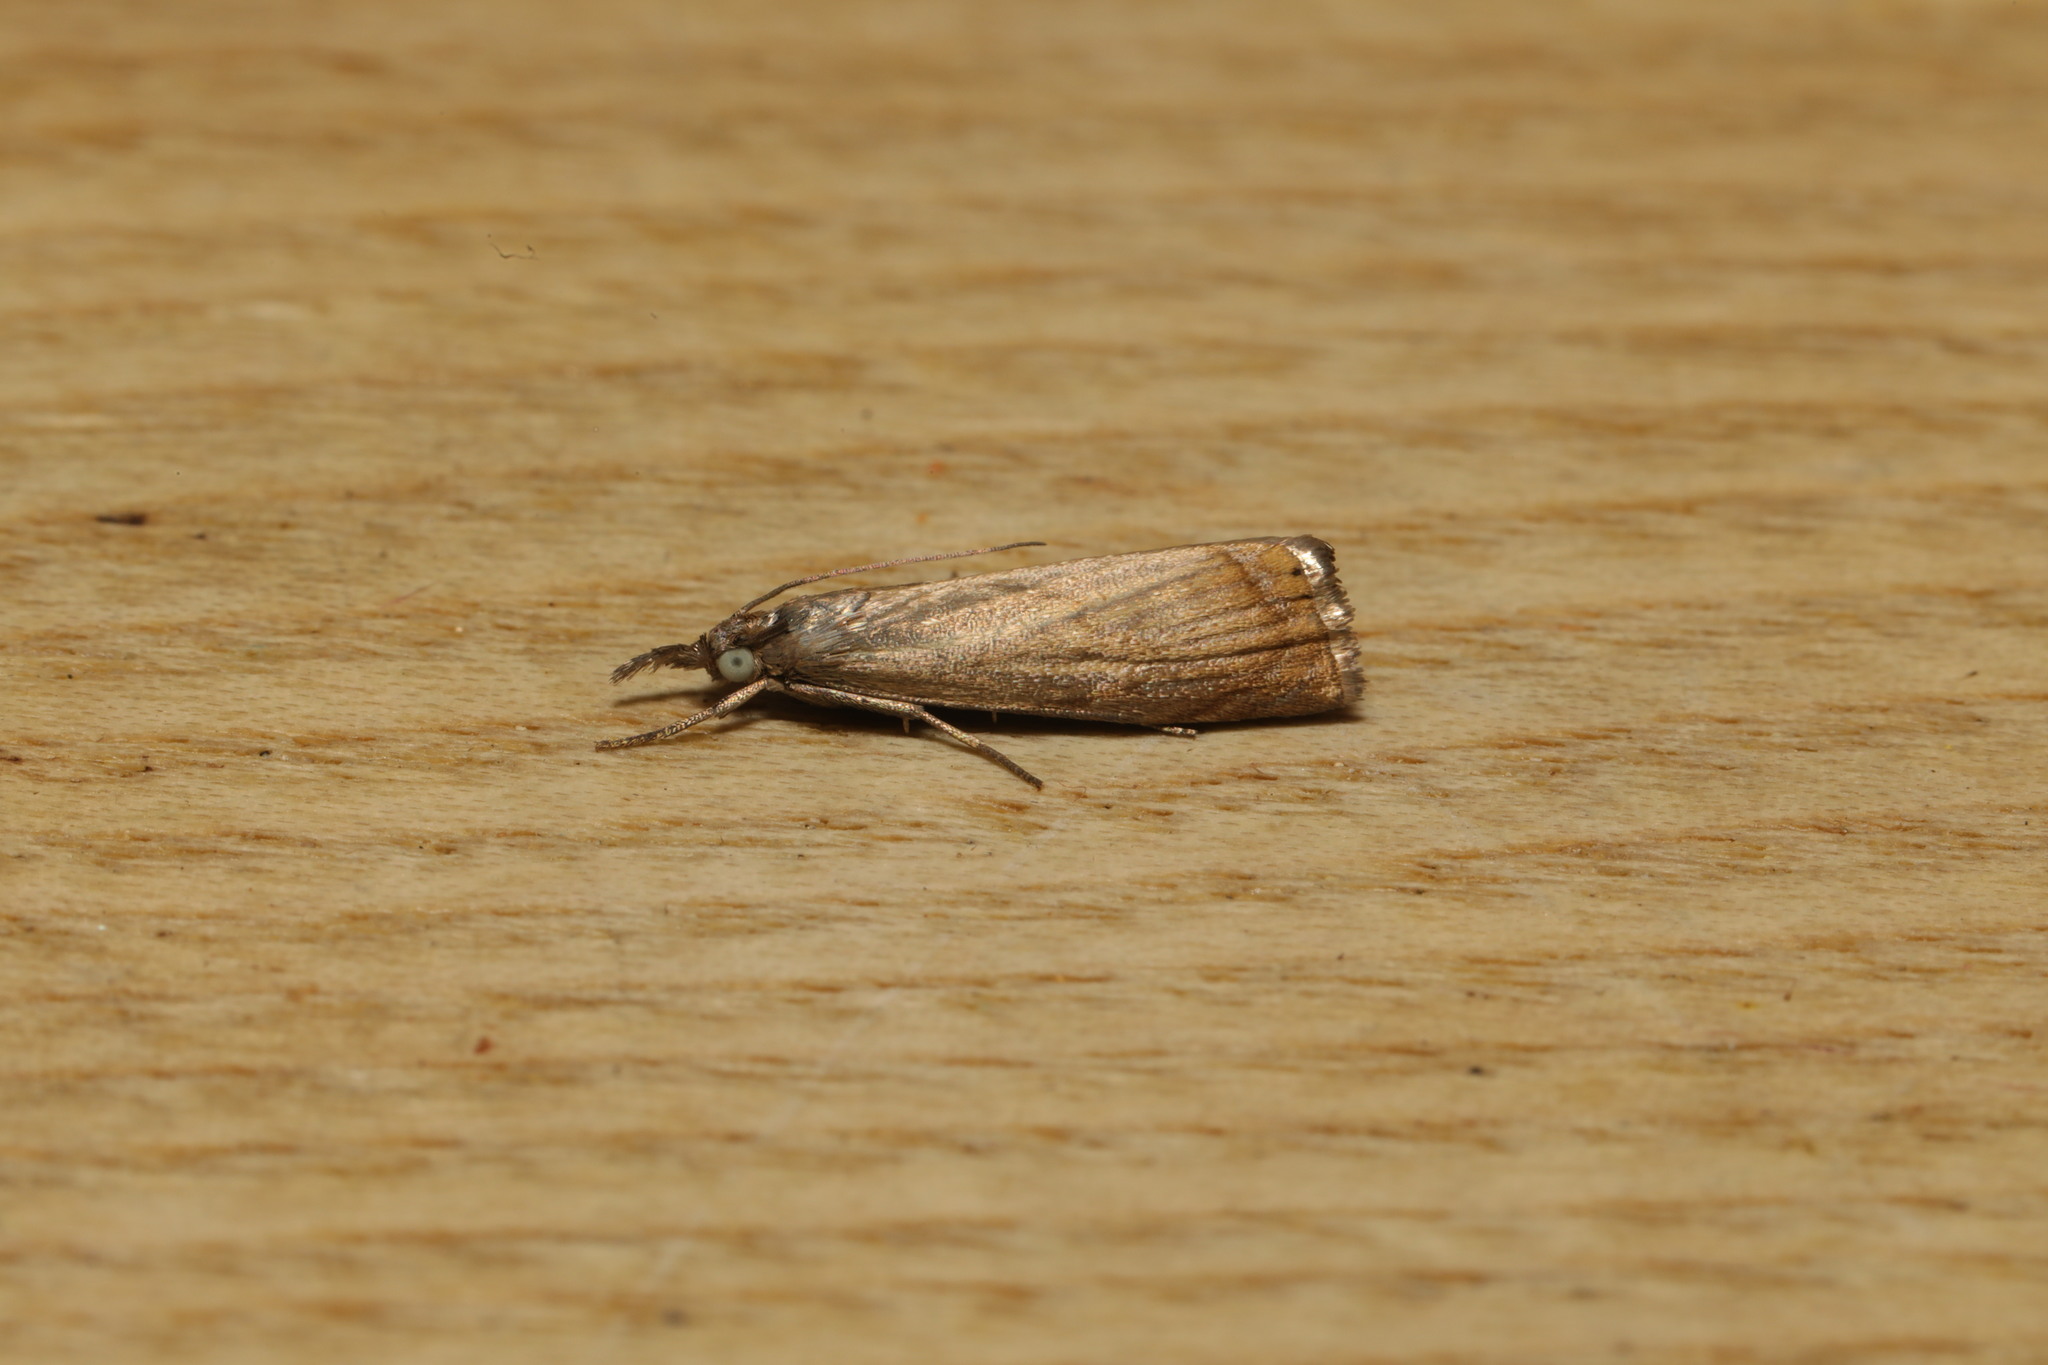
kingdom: Animalia
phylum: Arthropoda
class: Insecta
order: Lepidoptera
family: Crambidae
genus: Chrysoteuchia
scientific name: Chrysoteuchia culmella
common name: Garden grass-veneer
